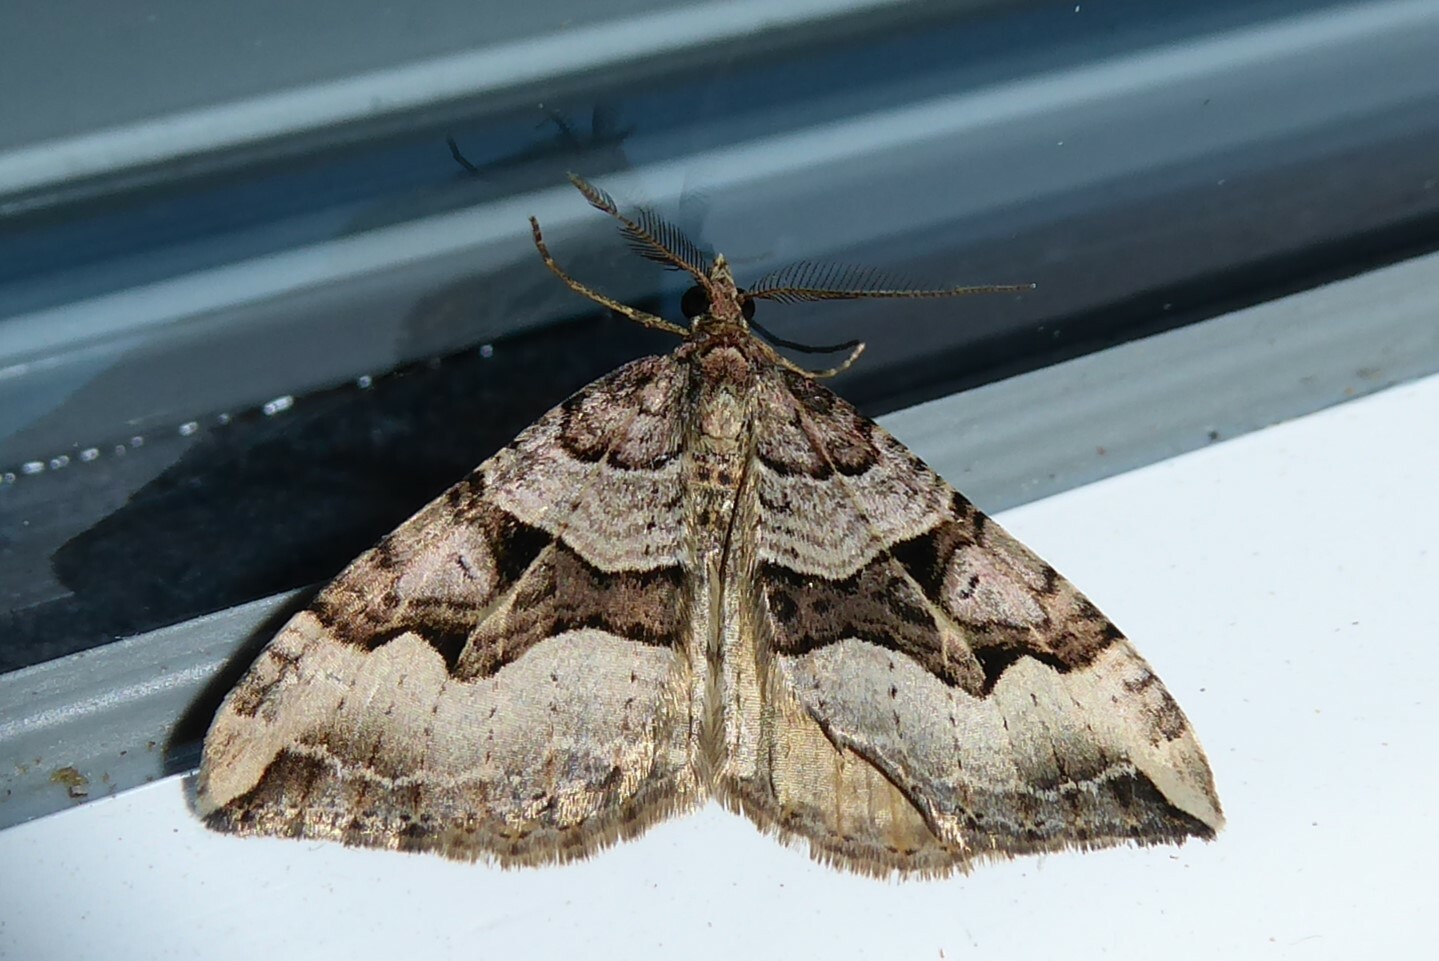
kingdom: Animalia
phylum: Arthropoda
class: Insecta
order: Lepidoptera
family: Geometridae
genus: Xanthorhoe
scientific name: Xanthorhoe semifissata
